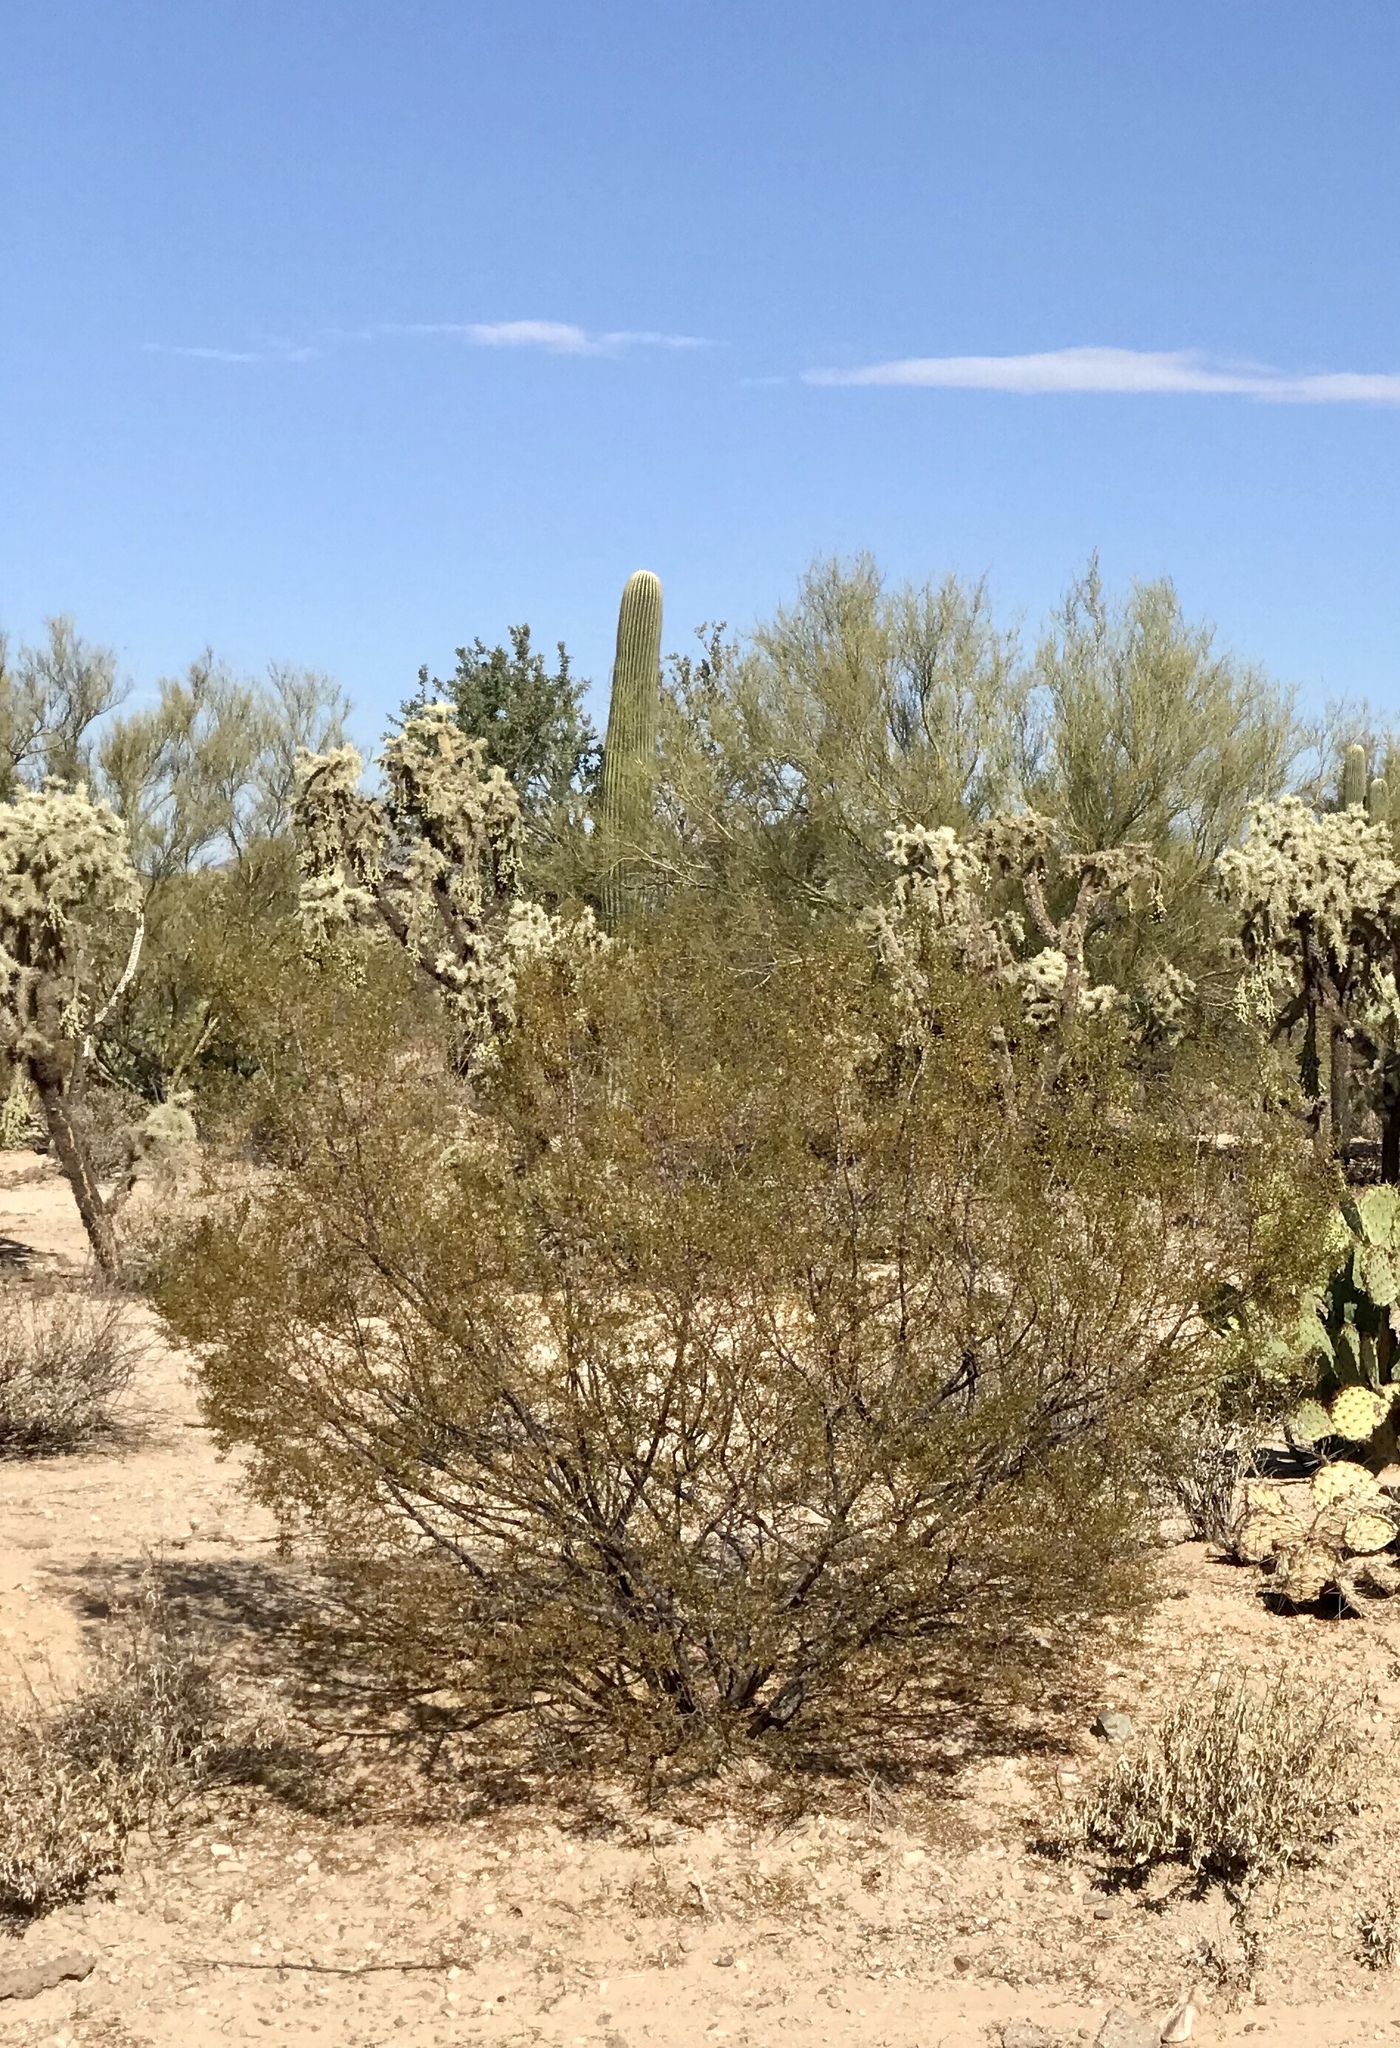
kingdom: Plantae
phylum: Tracheophyta
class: Magnoliopsida
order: Zygophyllales
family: Zygophyllaceae
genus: Larrea
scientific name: Larrea tridentata
